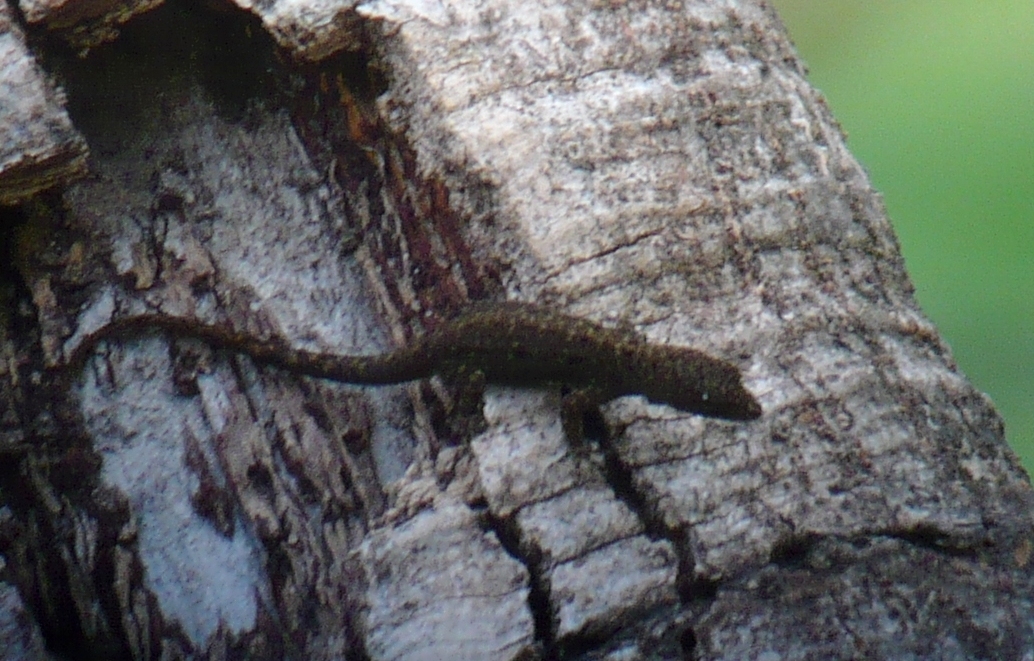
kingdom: Animalia
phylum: Chordata
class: Squamata
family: Sphaerodactylidae
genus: Gonatodes
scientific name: Gonatodes albogularis
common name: Yellow-headed gecko
